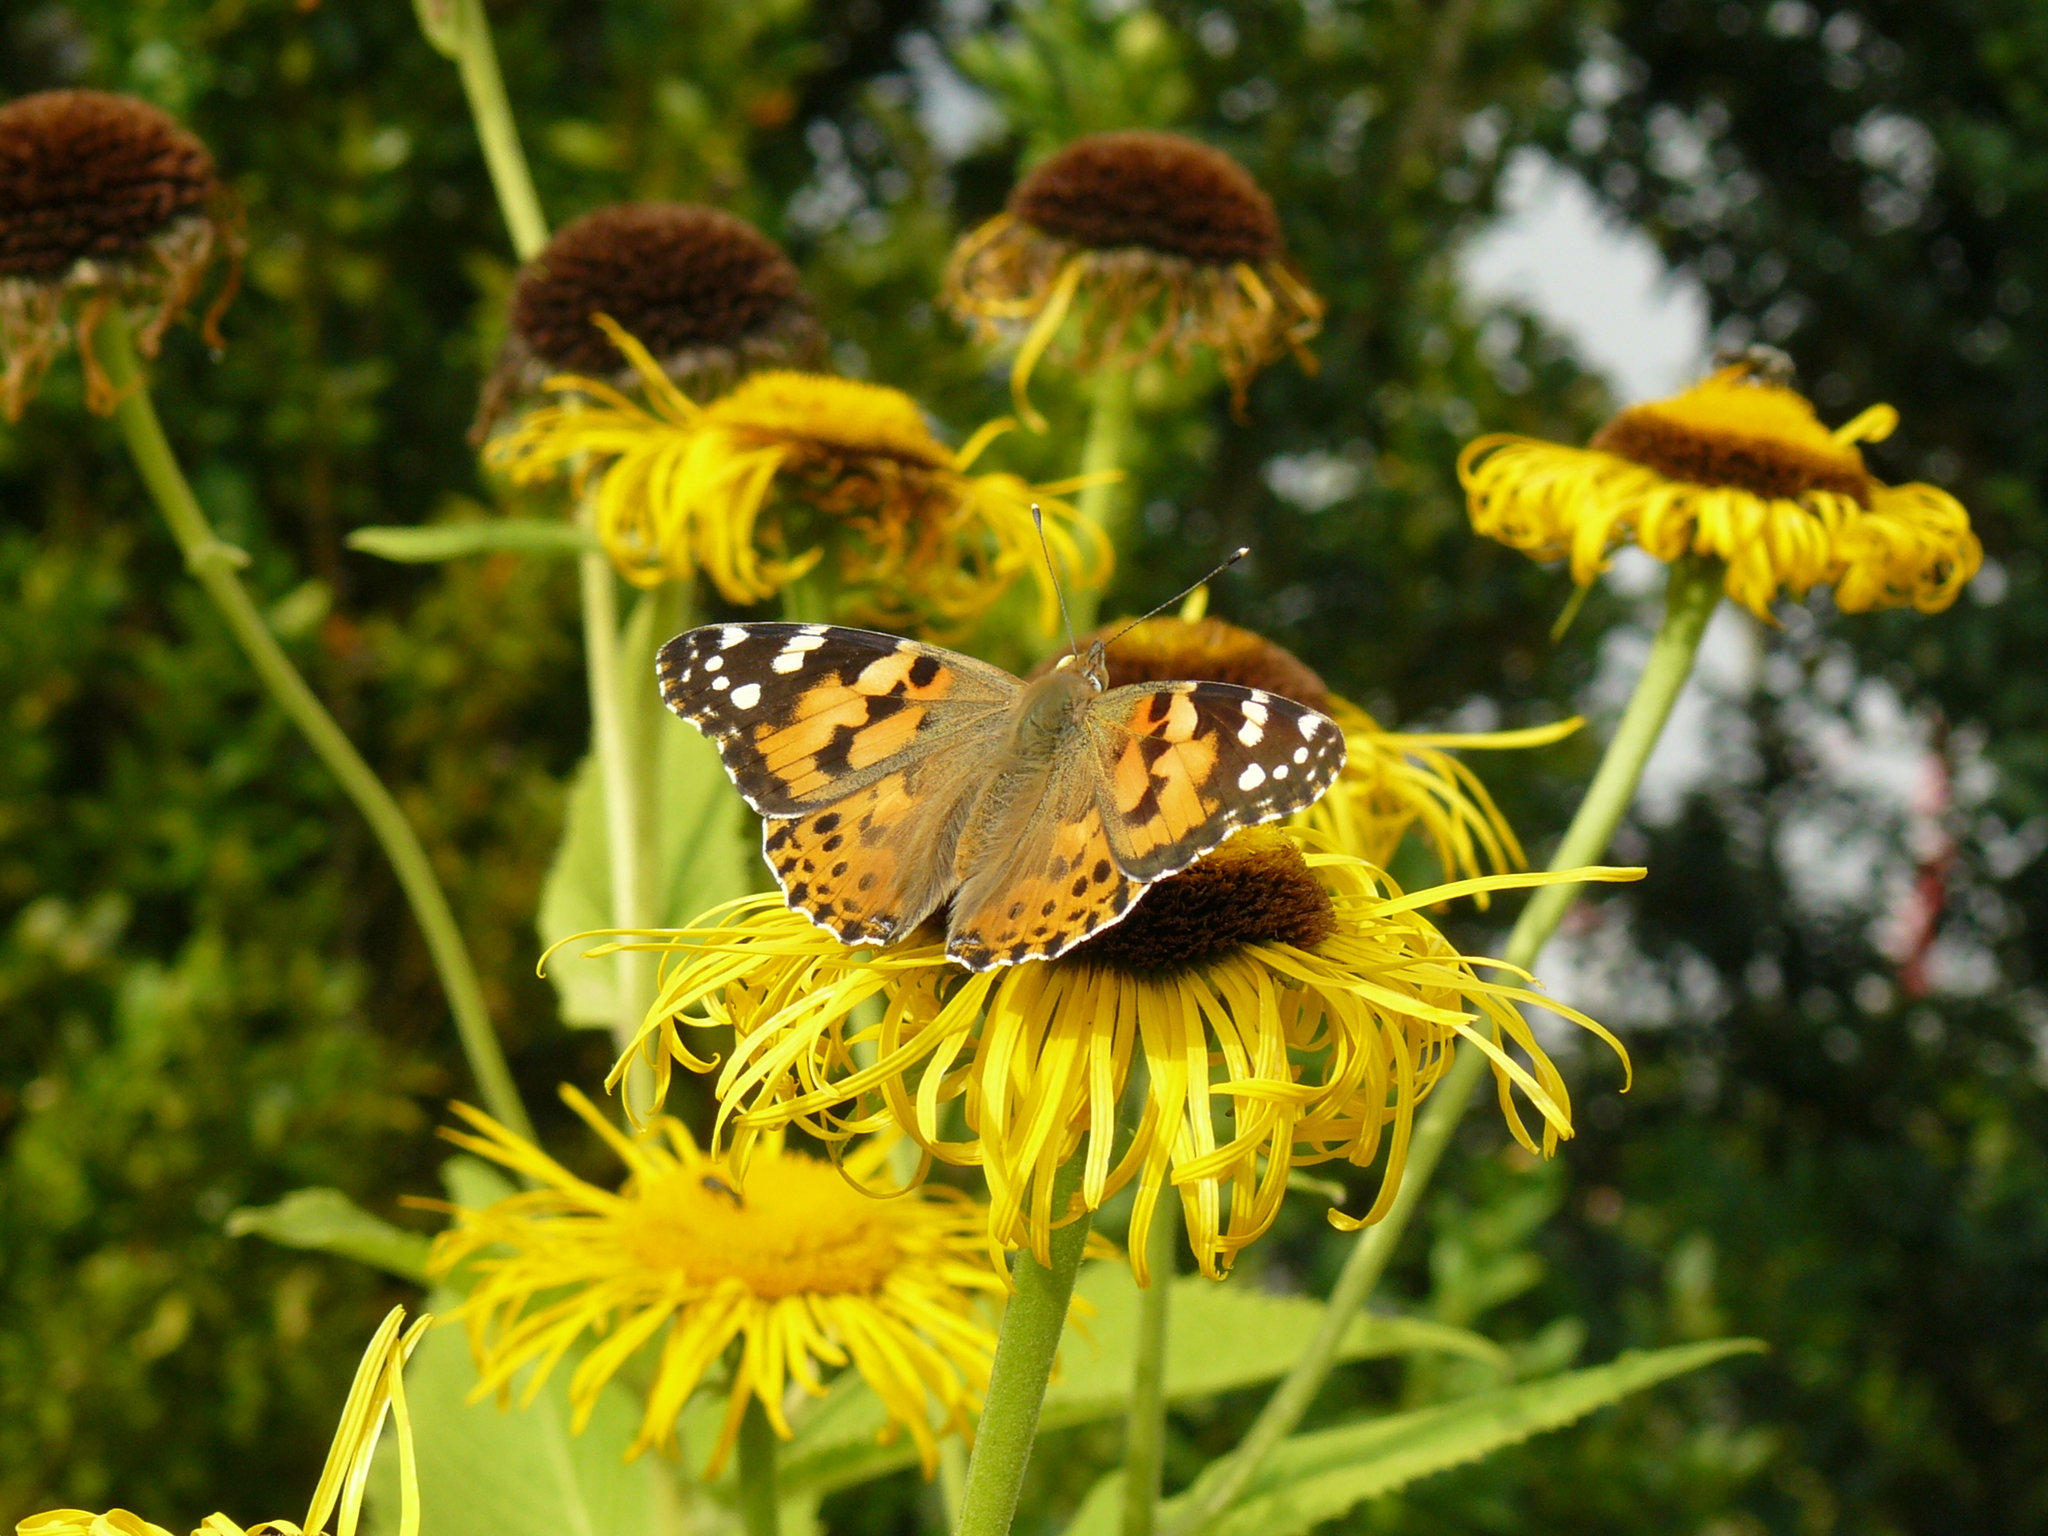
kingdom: Animalia
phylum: Arthropoda
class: Insecta
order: Lepidoptera
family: Nymphalidae
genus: Vanessa
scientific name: Vanessa cardui
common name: Painted lady
